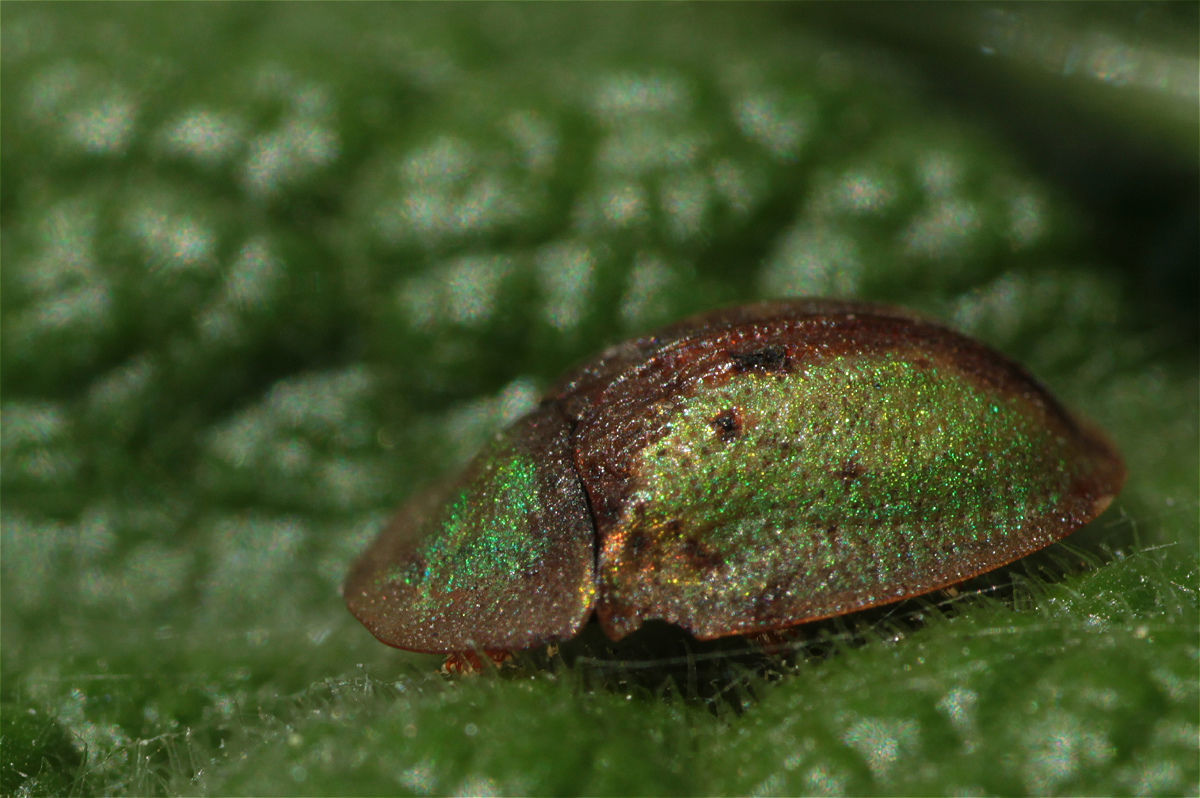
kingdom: Animalia
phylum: Arthropoda
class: Insecta
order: Coleoptera
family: Chrysomelidae
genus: Cassida
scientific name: Cassida vibex
